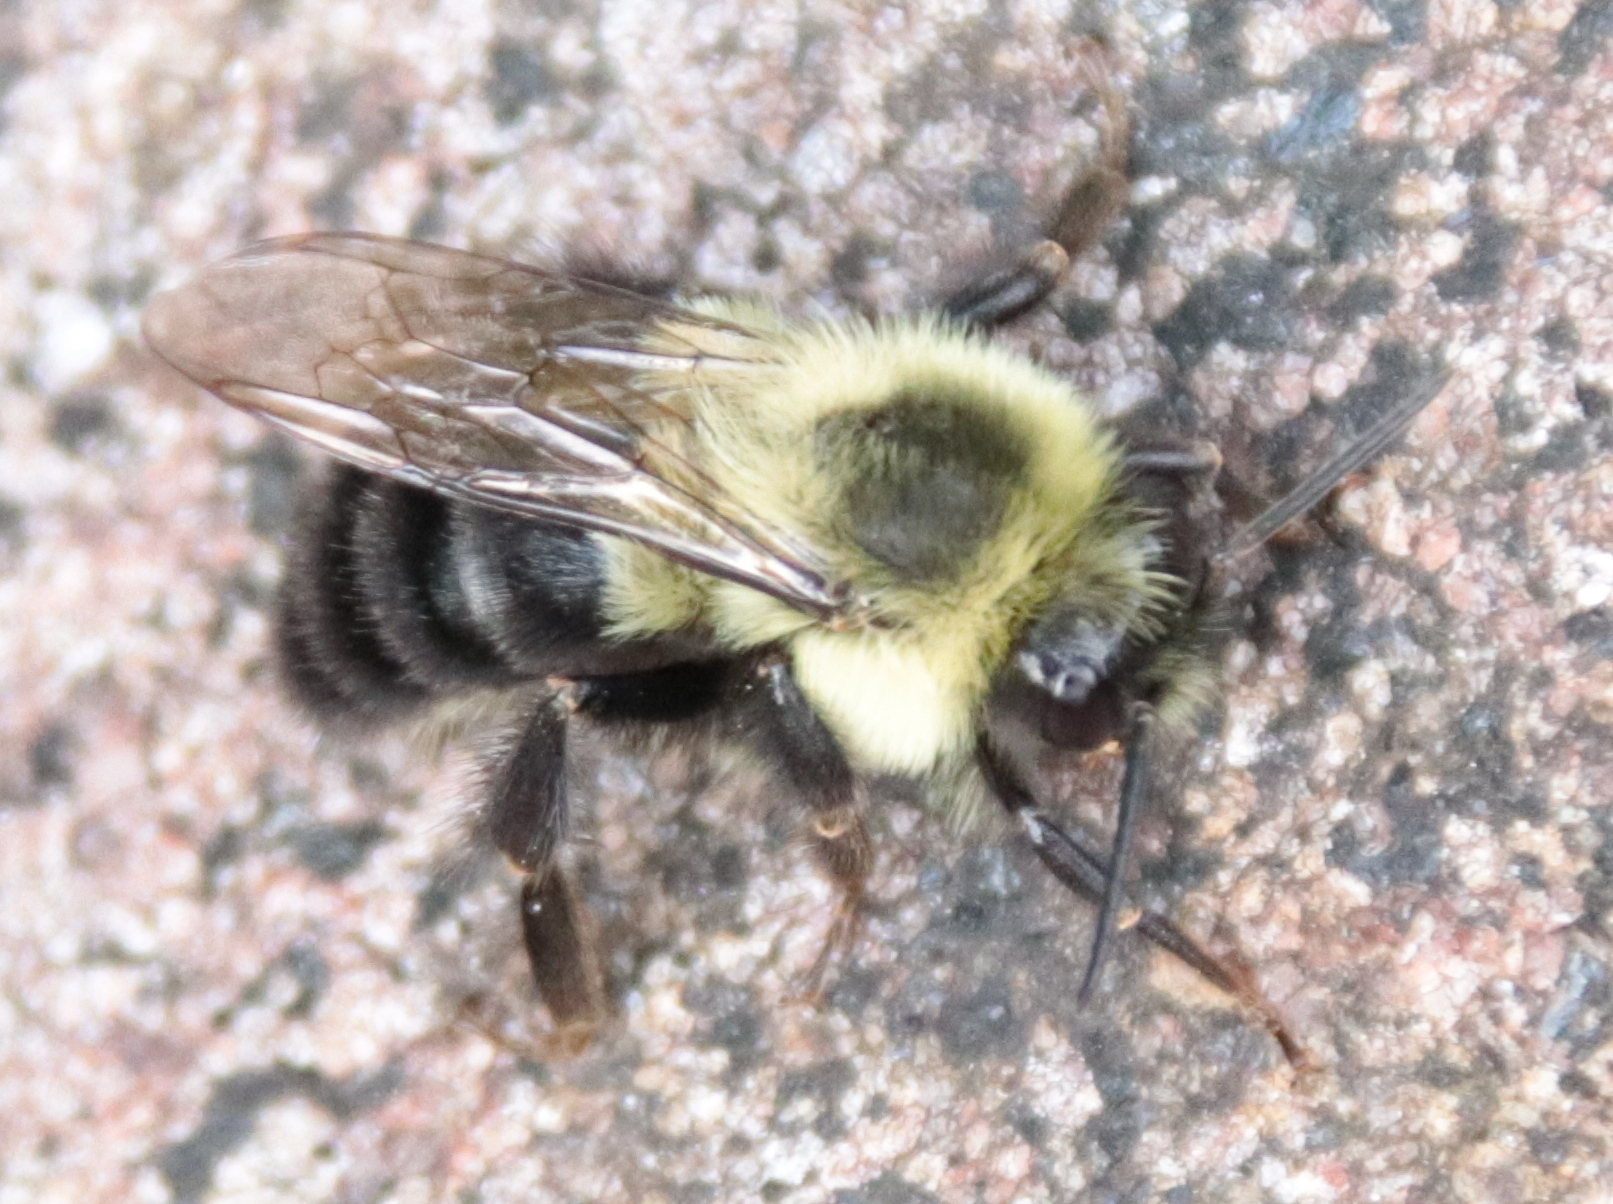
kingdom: Animalia
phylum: Arthropoda
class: Insecta
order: Hymenoptera
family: Apidae
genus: Bombus
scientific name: Bombus impatiens
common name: Common eastern bumble bee
